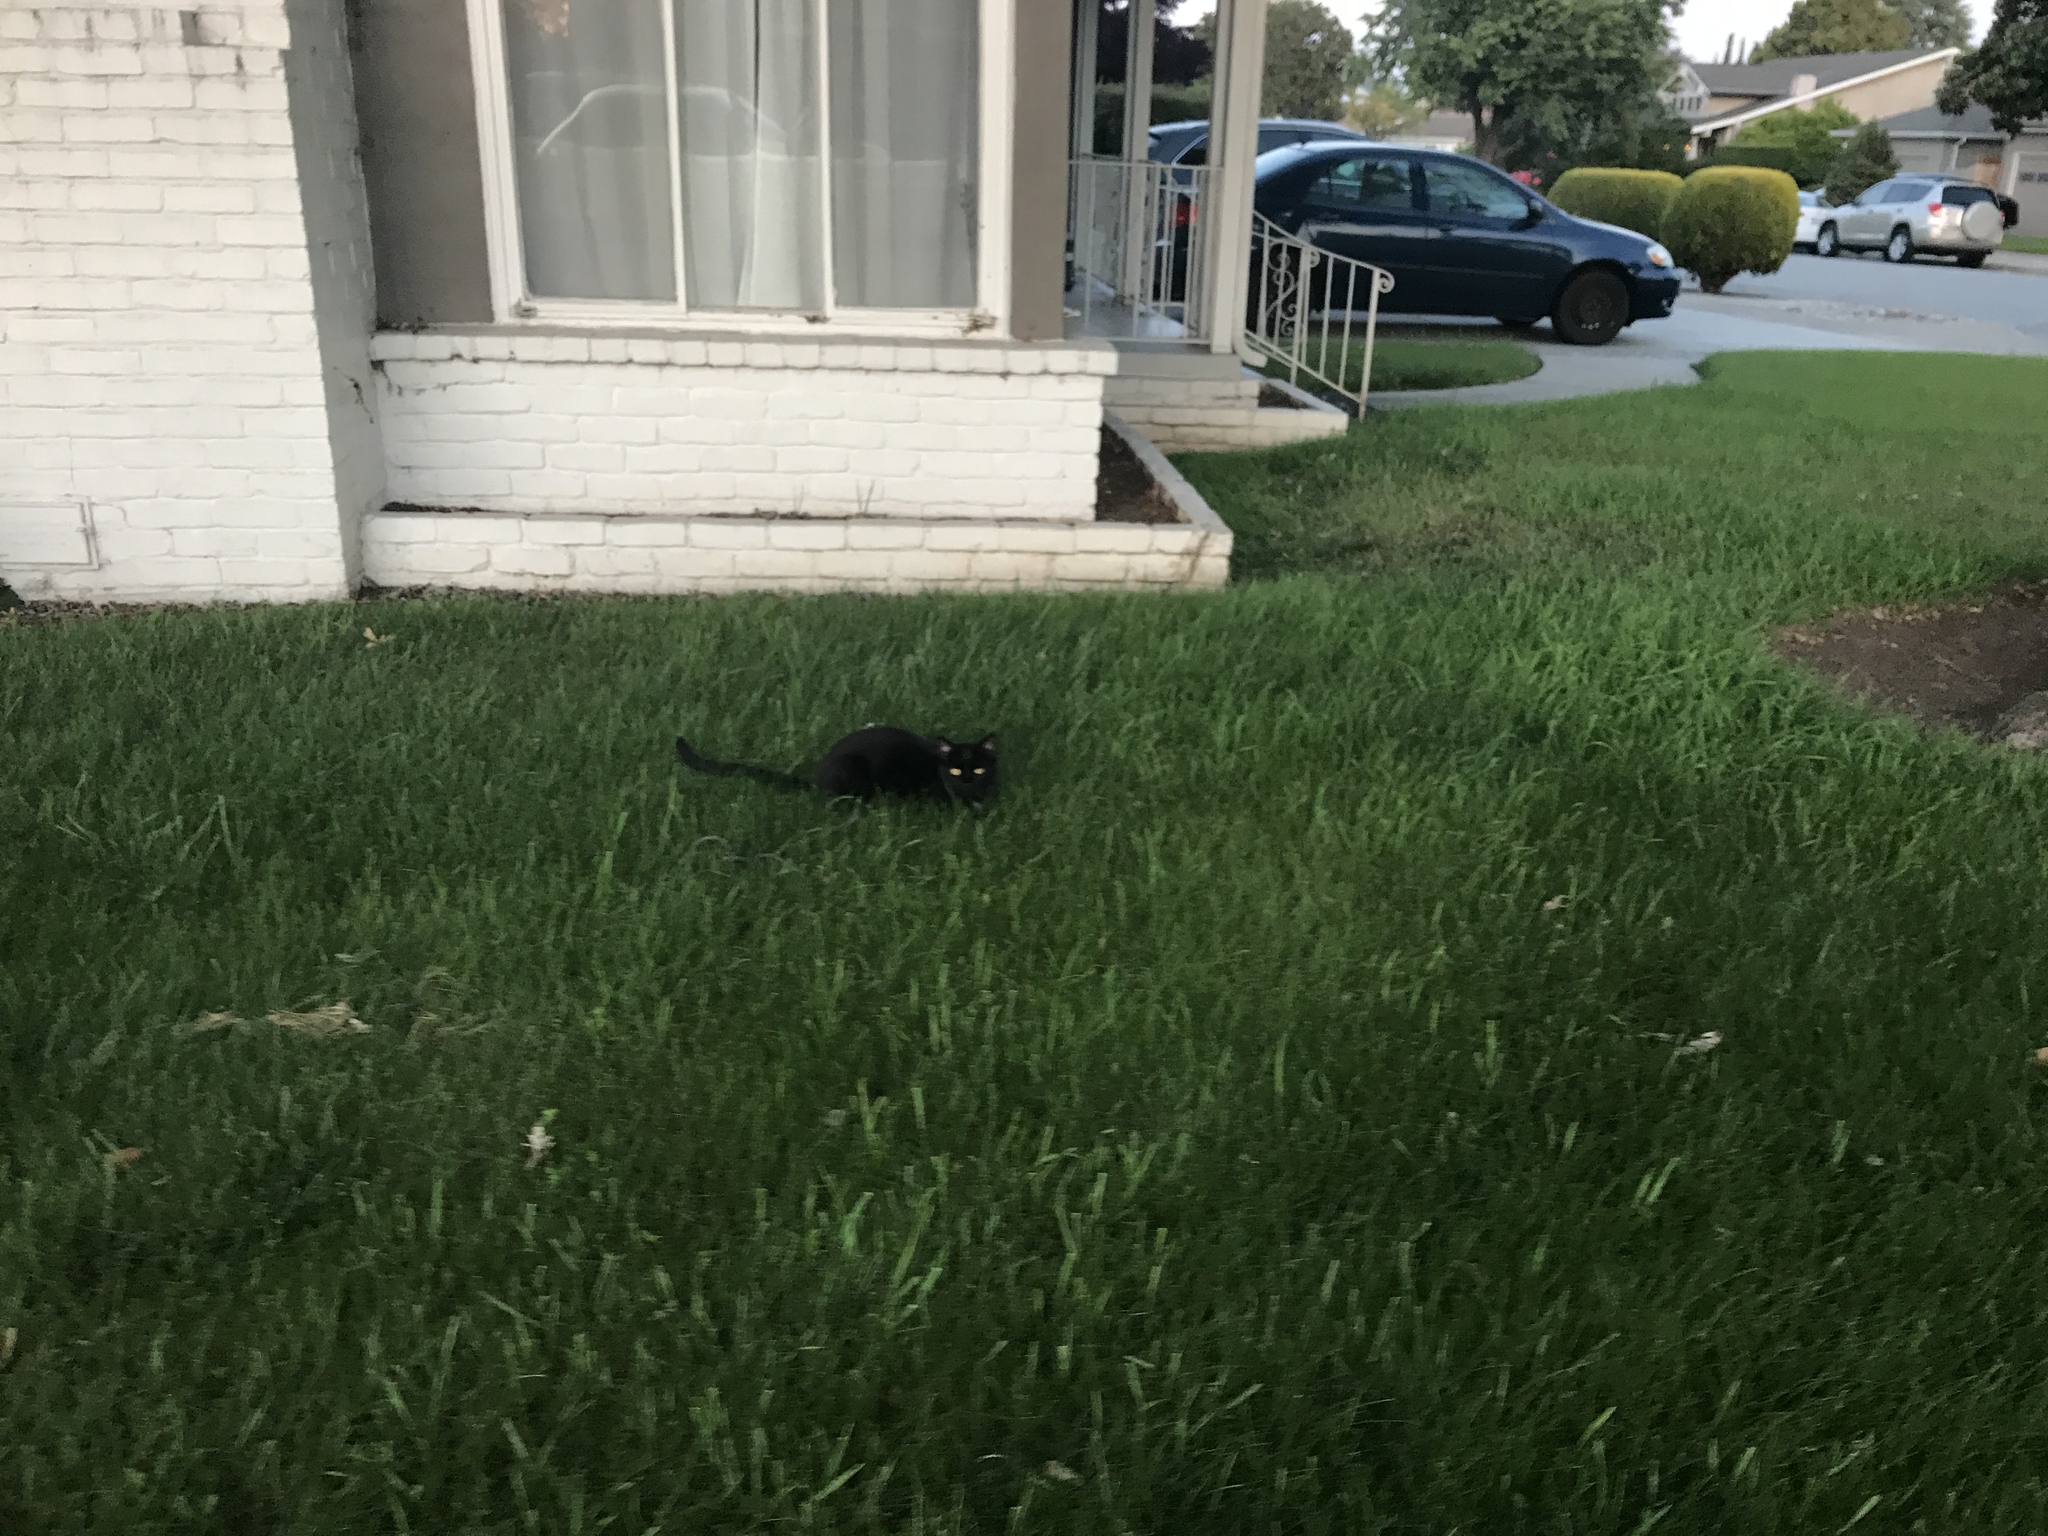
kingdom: Animalia
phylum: Chordata
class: Mammalia
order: Carnivora
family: Felidae
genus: Felis
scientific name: Felis catus
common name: Domestic cat
